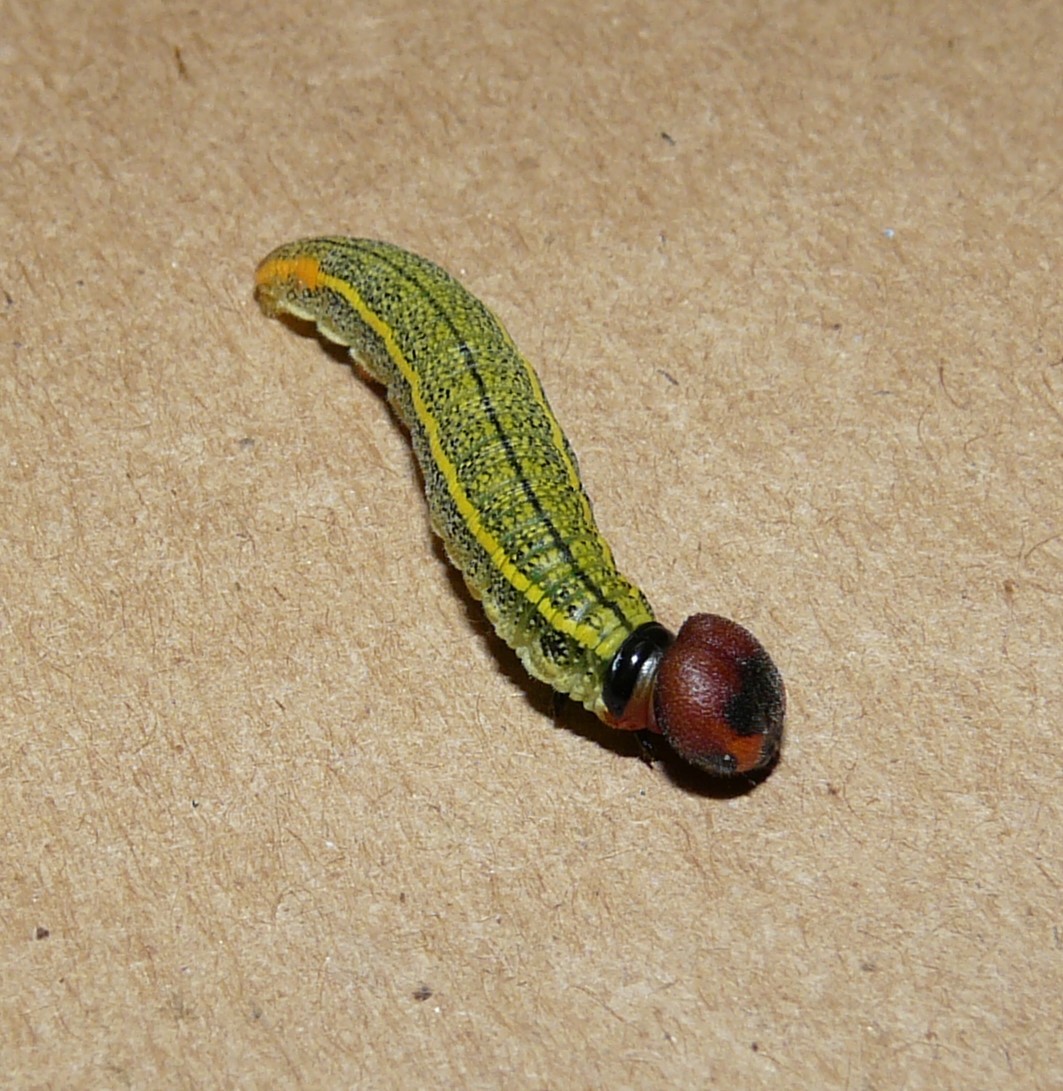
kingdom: Animalia
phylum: Arthropoda
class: Insecta
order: Lepidoptera
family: Hesperiidae
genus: Urbanus
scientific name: Urbanus proteus
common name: Long-tailed skipper
